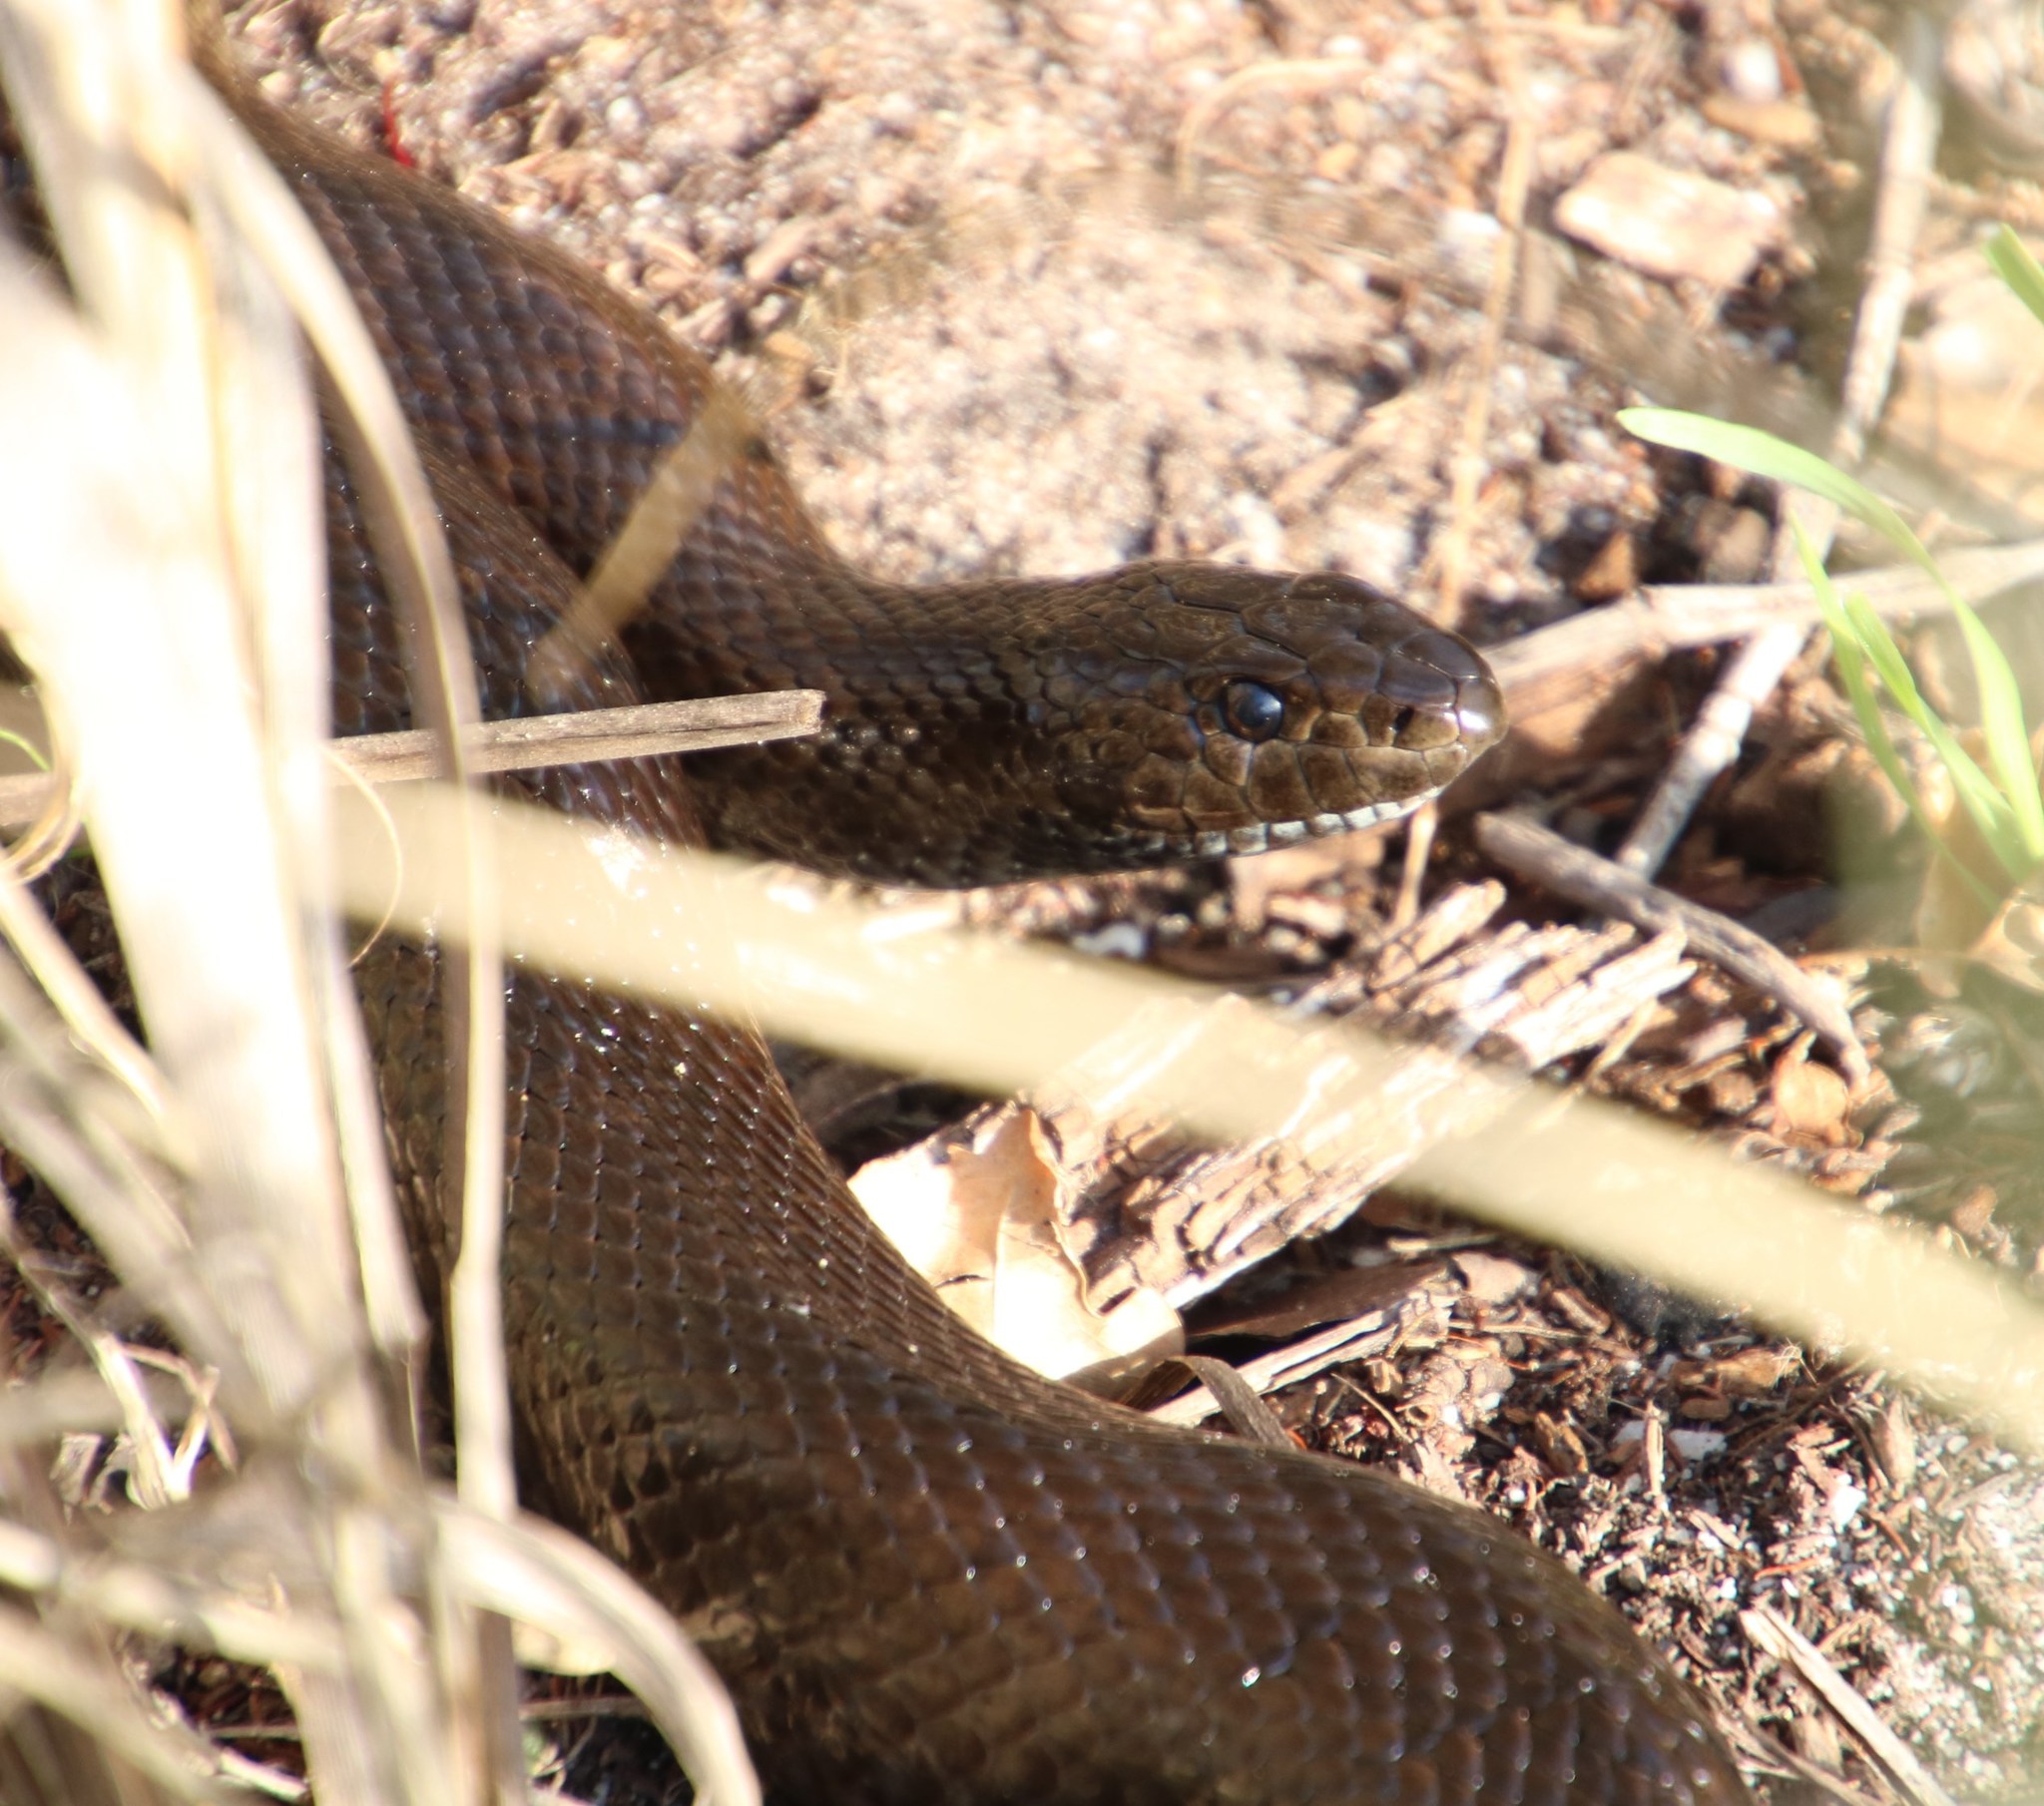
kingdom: Animalia
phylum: Chordata
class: Squamata
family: Pseudaspididae
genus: Pseudaspis
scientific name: Pseudaspis cana
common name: Mole snake
